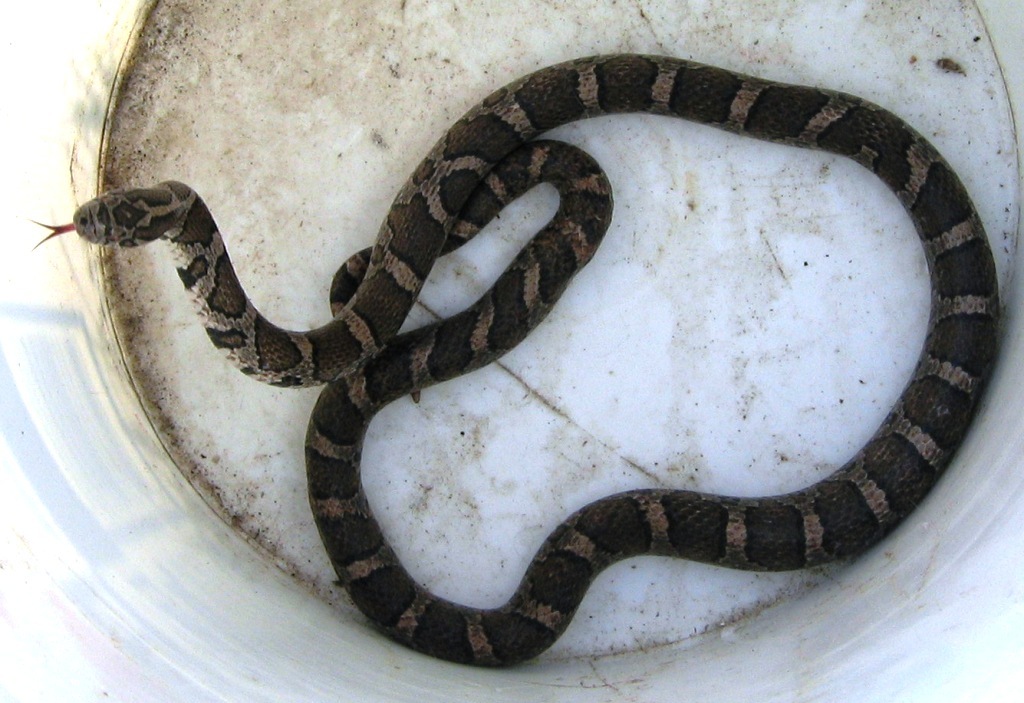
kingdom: Animalia
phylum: Chordata
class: Squamata
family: Colubridae
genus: Lampropeltis
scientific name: Lampropeltis triangulum
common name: Eastern milksnake
